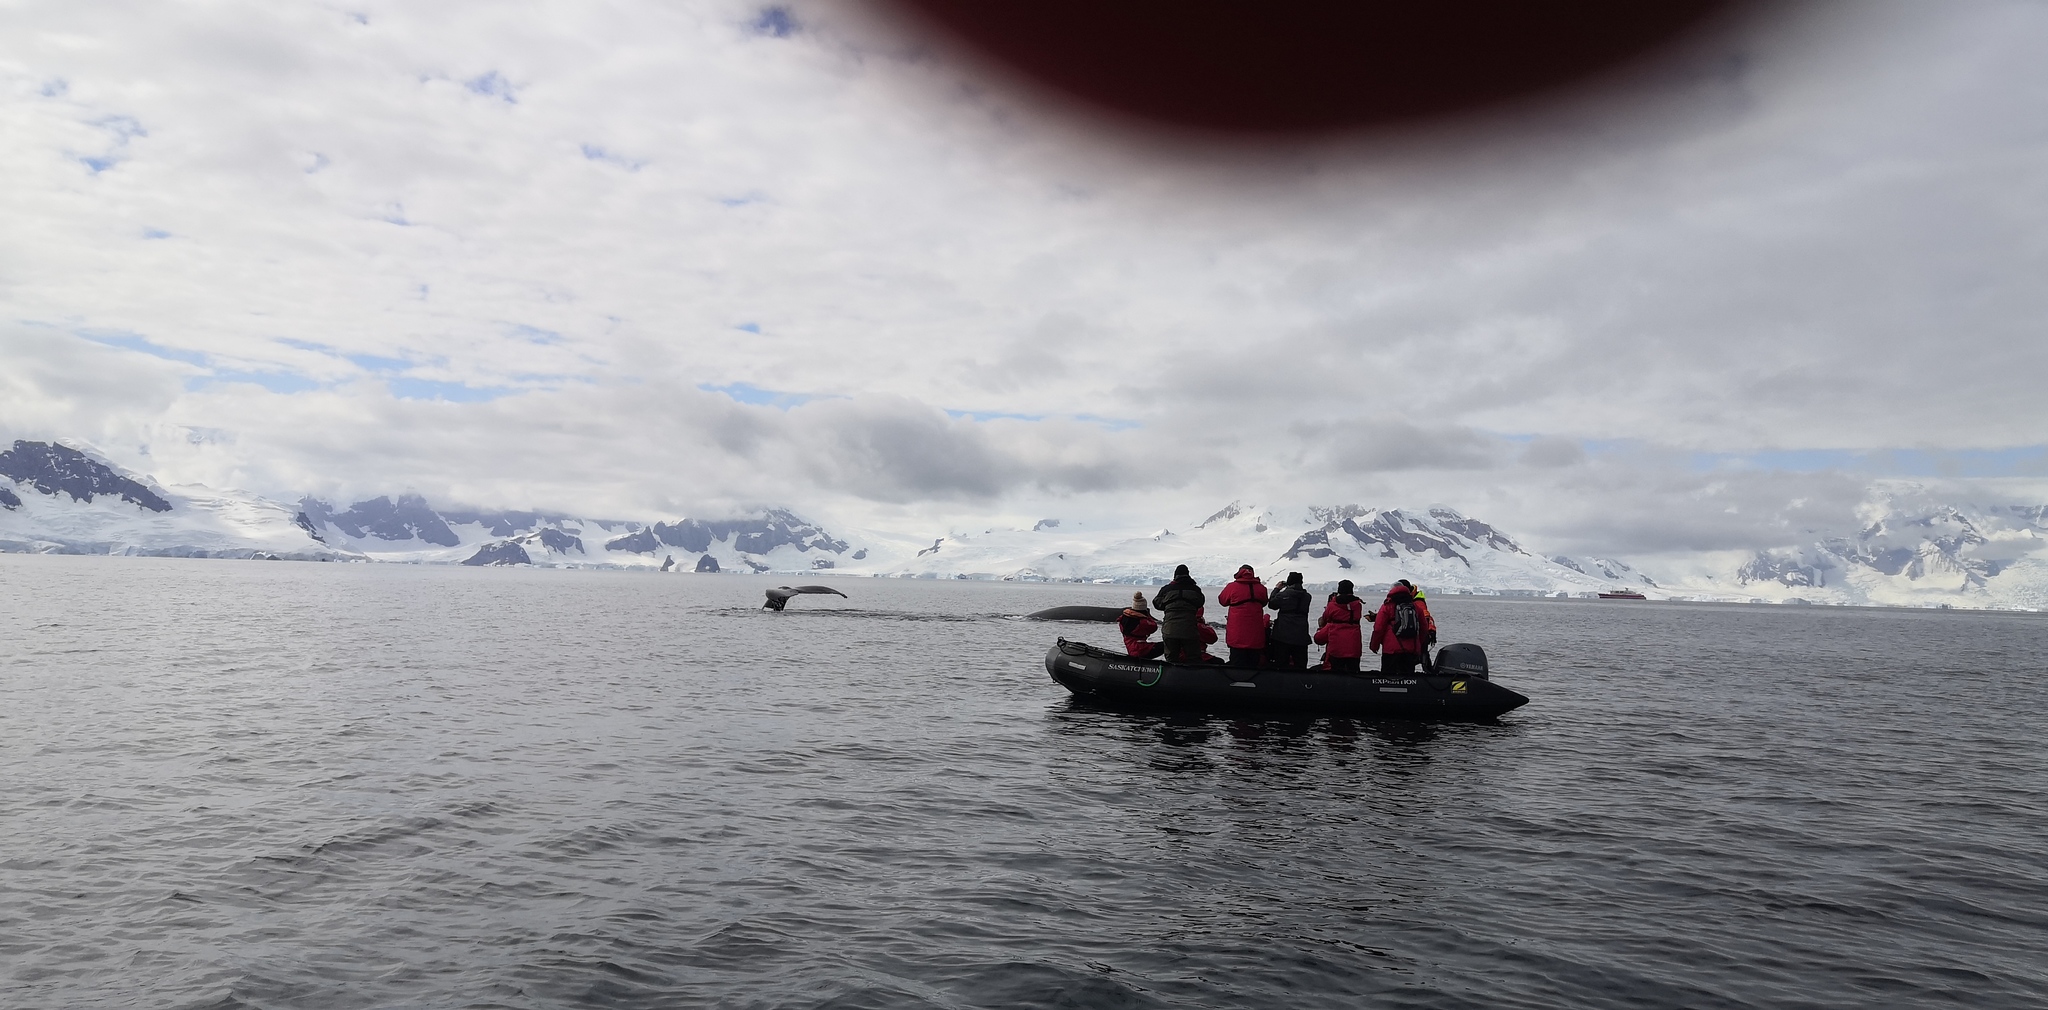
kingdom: Animalia
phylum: Chordata
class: Mammalia
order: Cetacea
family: Balaenopteridae
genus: Megaptera
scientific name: Megaptera novaeangliae
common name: Humpback whale
